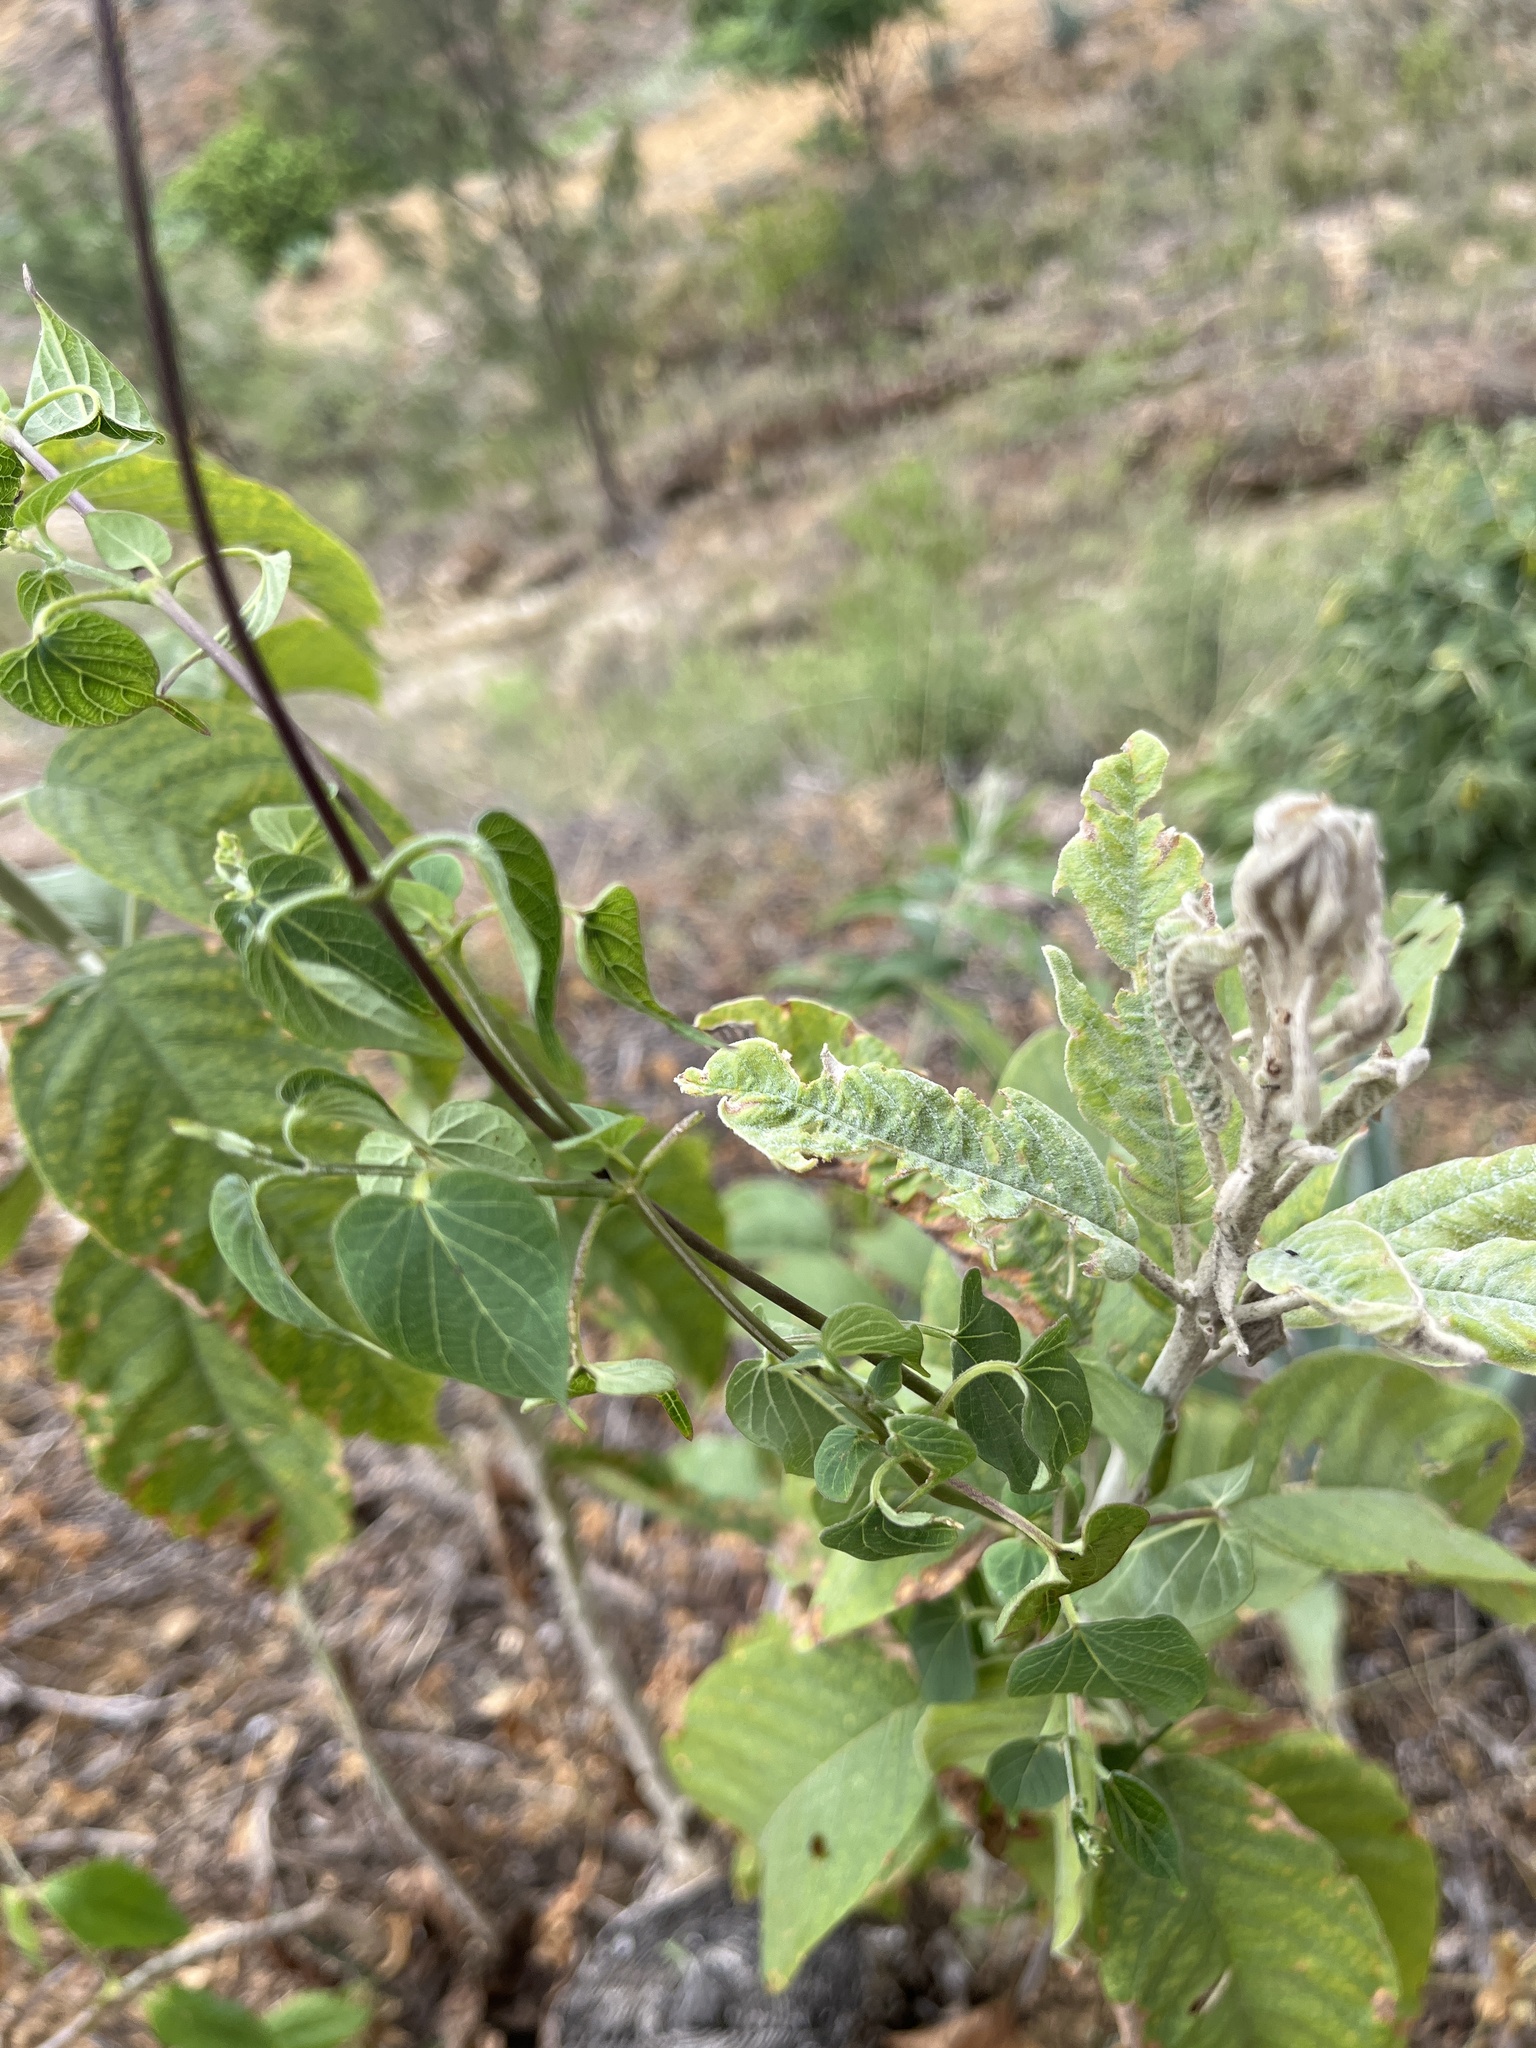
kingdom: Plantae
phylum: Tracheophyta
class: Magnoliopsida
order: Solanales
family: Convolvulaceae
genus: Ipomoea
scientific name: Ipomoea murucoides
